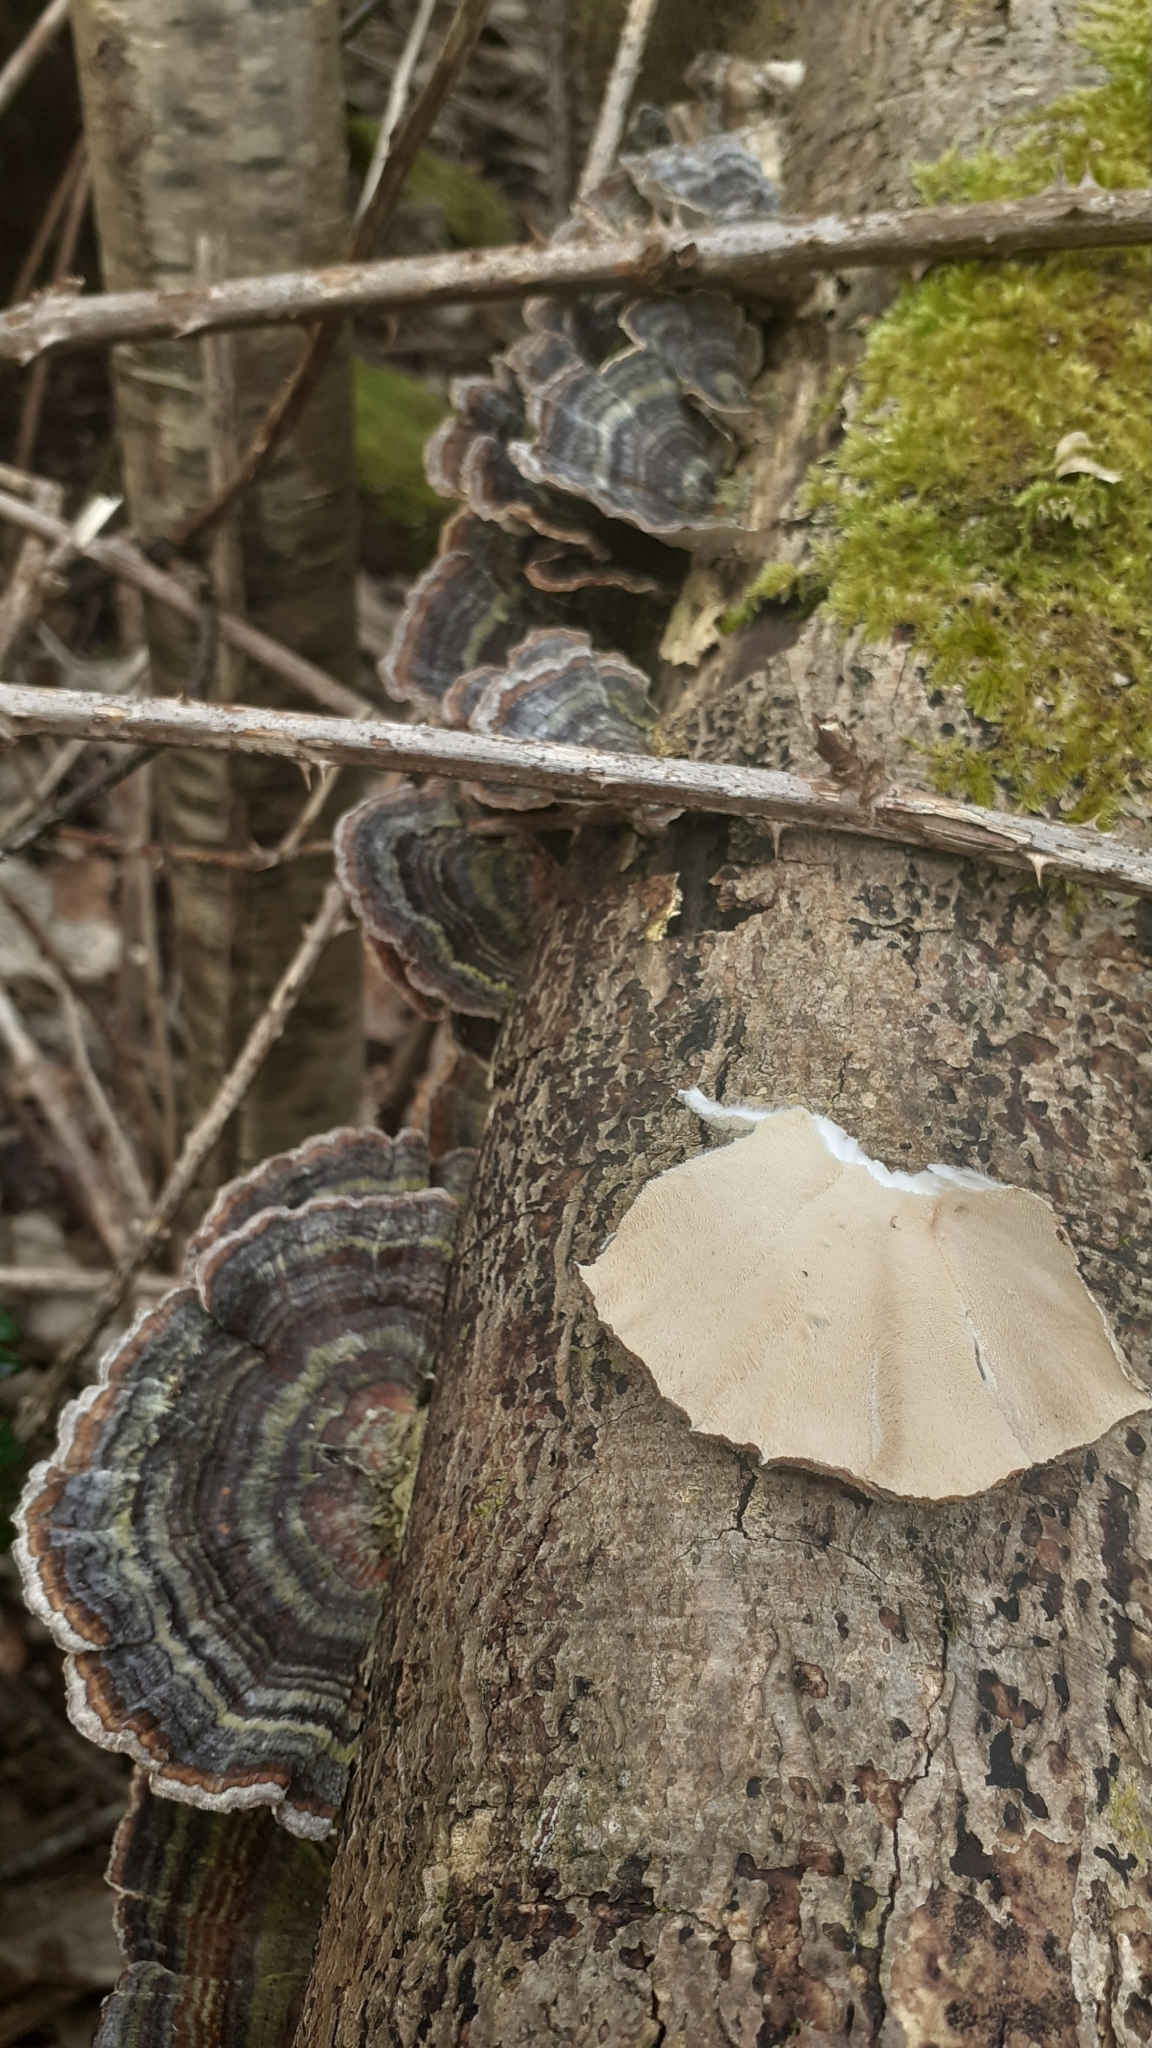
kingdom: Fungi
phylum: Basidiomycota
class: Agaricomycetes
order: Polyporales
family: Polyporaceae
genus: Trametes
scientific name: Trametes versicolor
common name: Turkeytail
